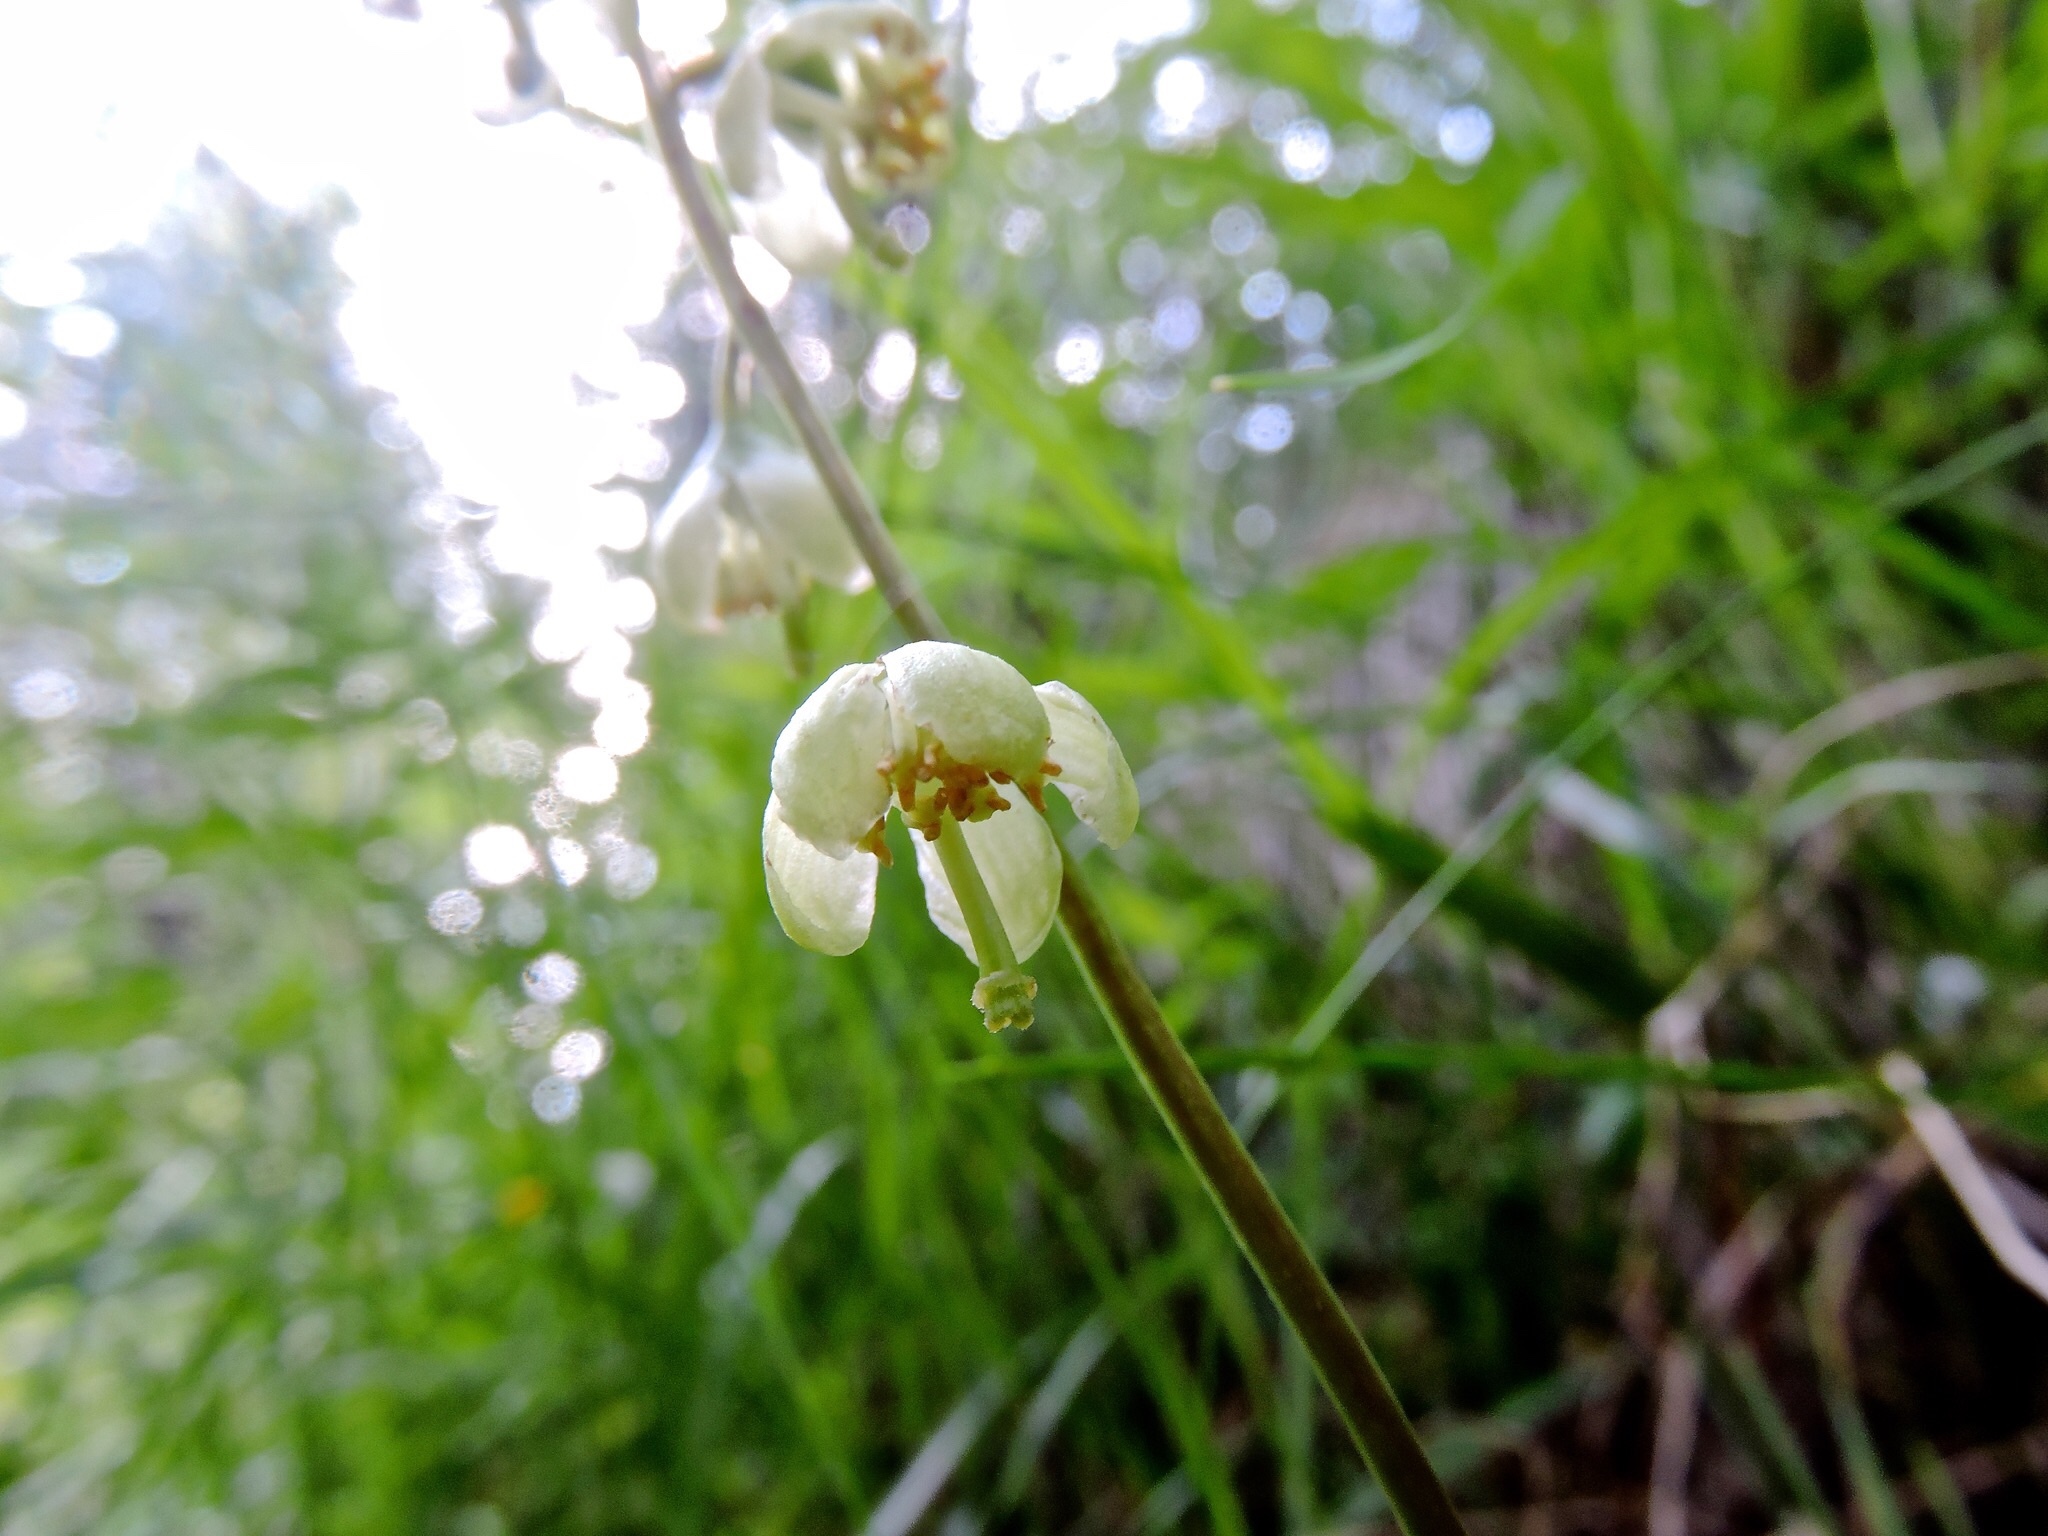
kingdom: Plantae
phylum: Tracheophyta
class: Magnoliopsida
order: Ericales
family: Ericaceae
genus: Pyrola
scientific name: Pyrola chlorantha
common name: Green wintergreen
